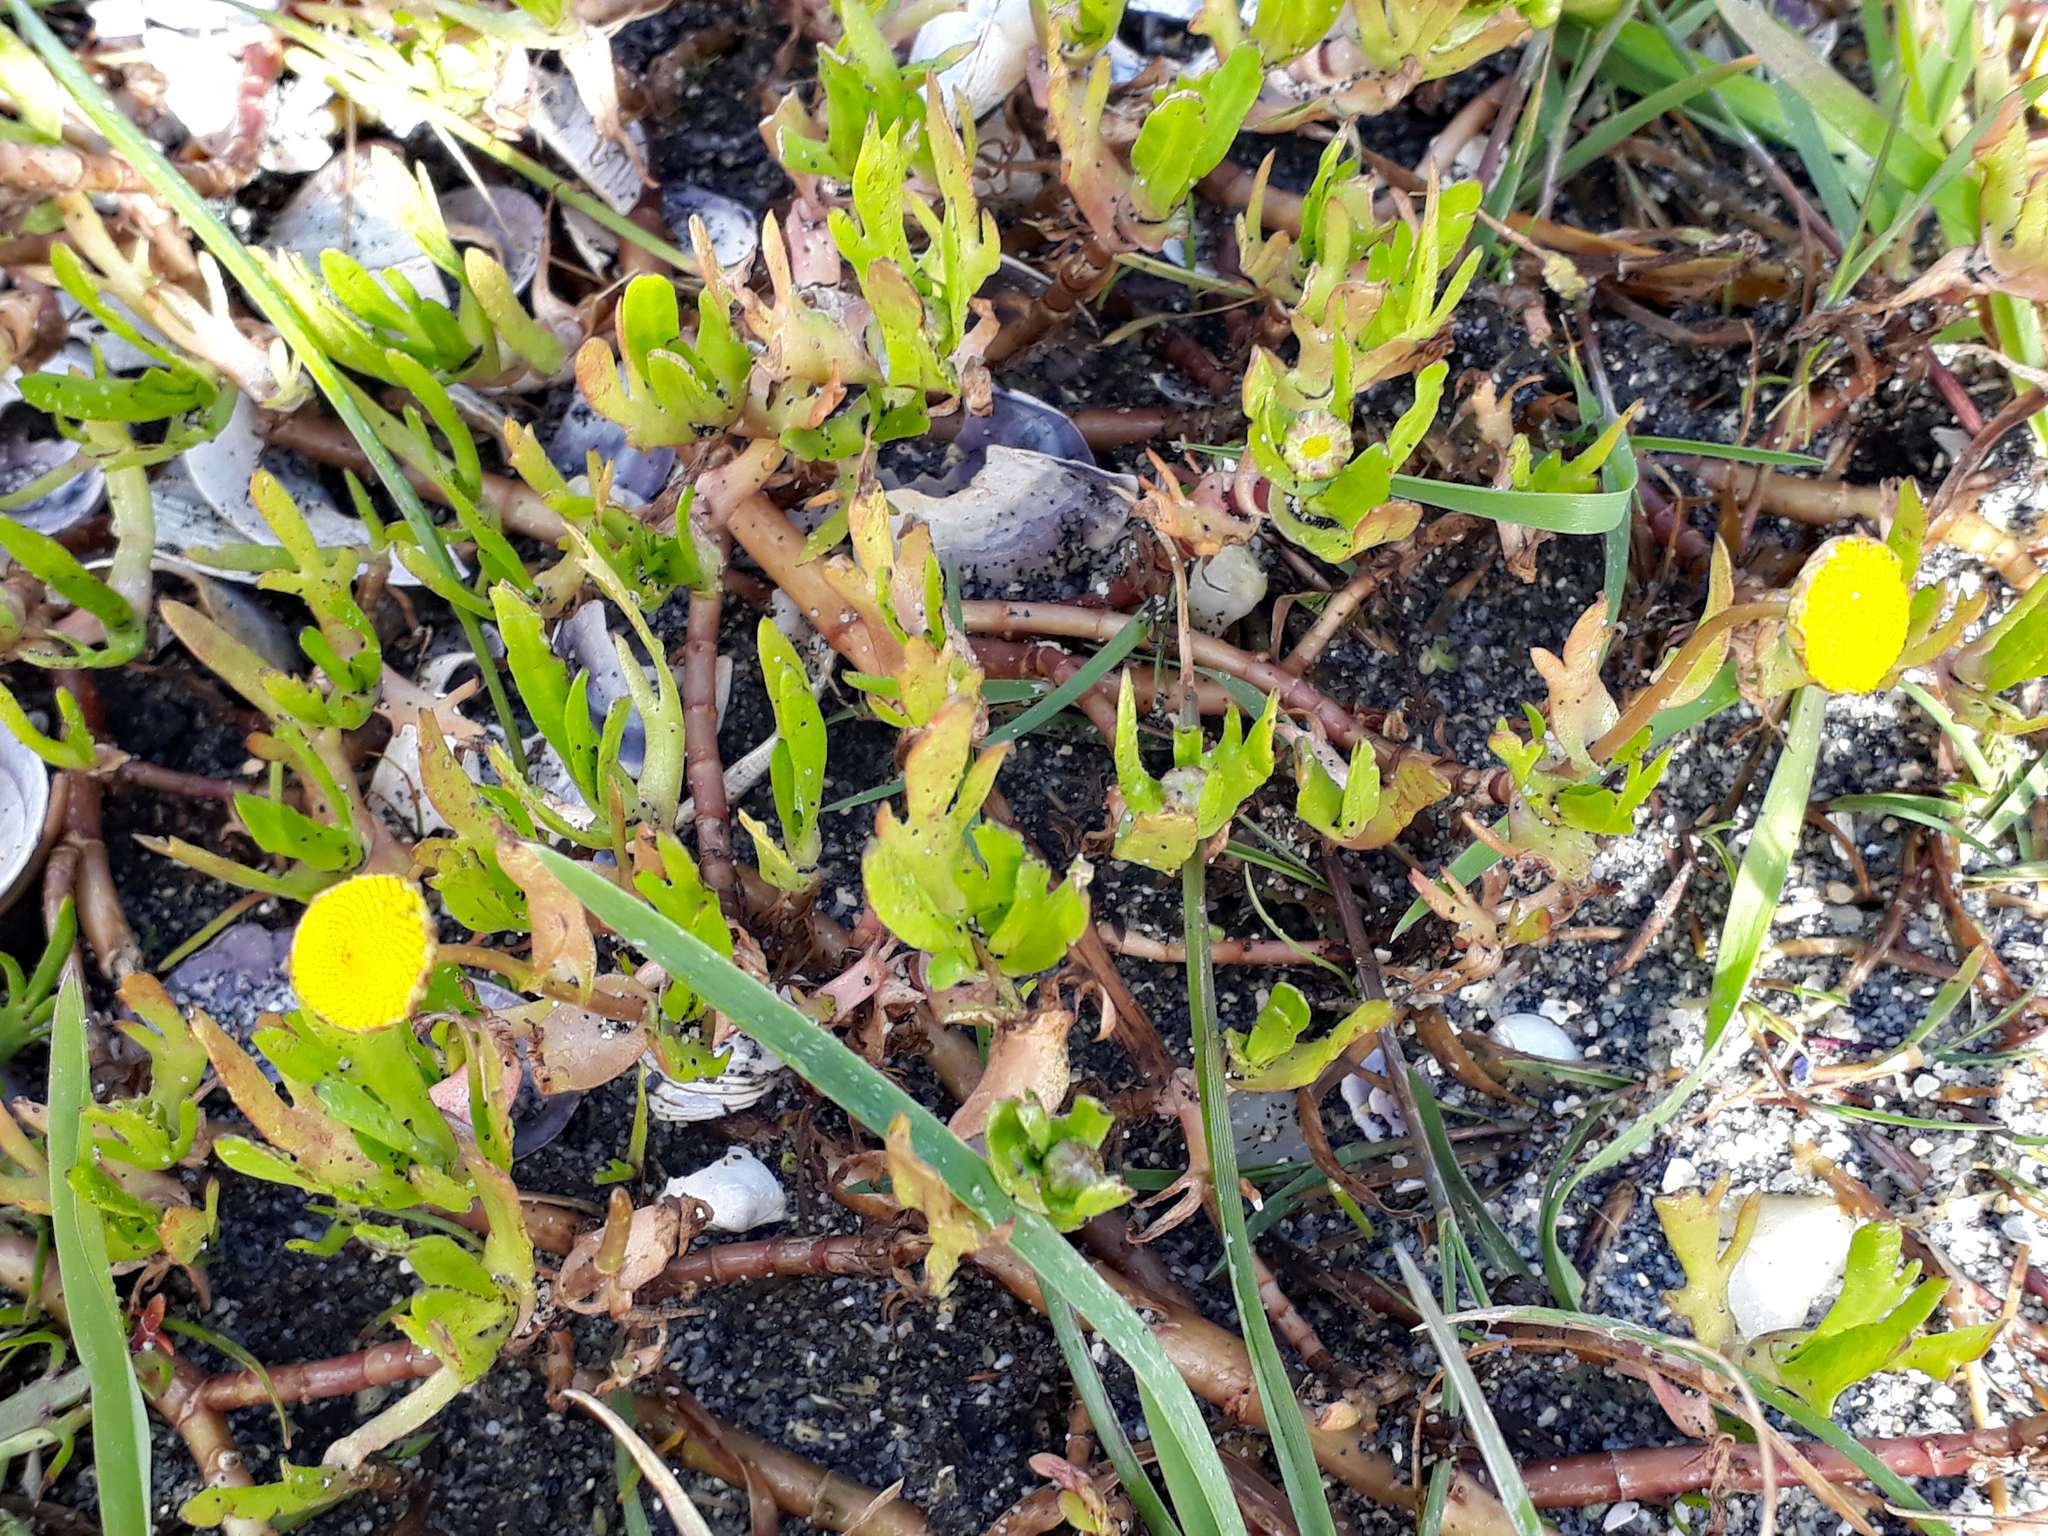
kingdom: Plantae
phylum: Tracheophyta
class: Magnoliopsida
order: Asterales
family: Asteraceae
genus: Cotula
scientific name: Cotula coronopifolia
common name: Buttonweed
